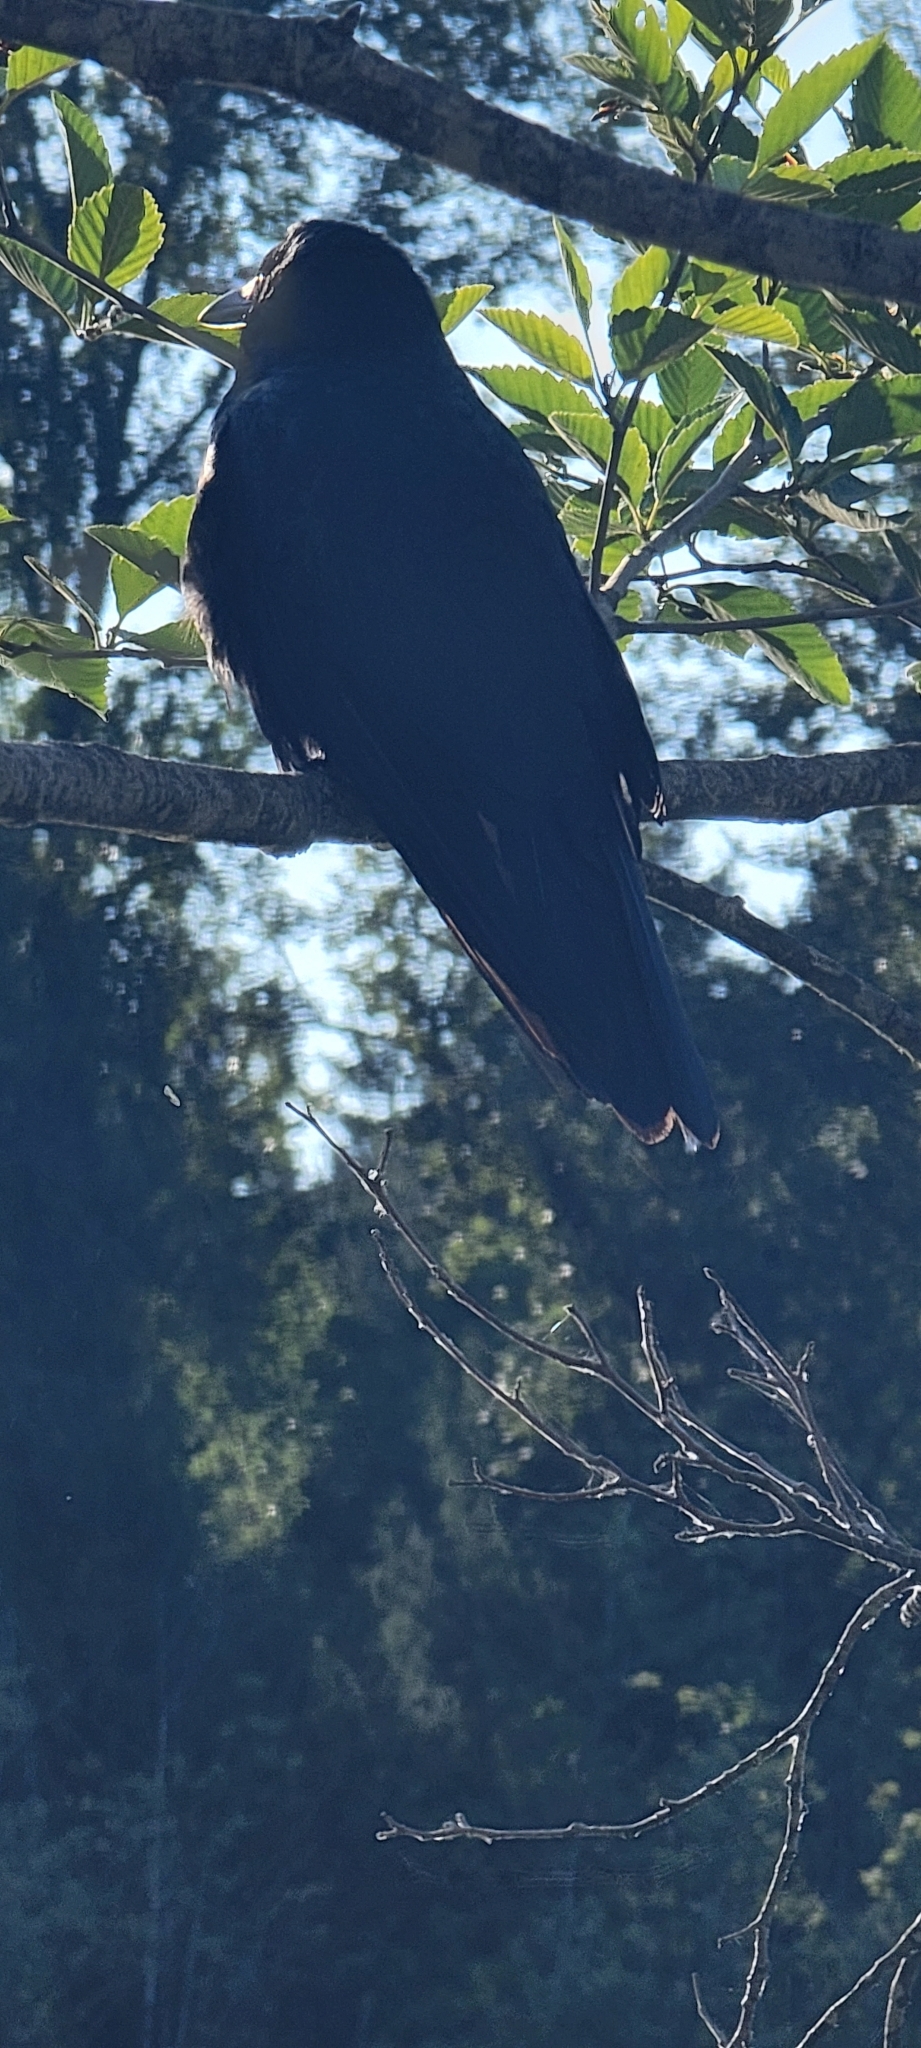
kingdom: Animalia
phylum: Chordata
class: Aves
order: Passeriformes
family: Corvidae
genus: Corvus
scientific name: Corvus brachyrhynchos
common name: American crow
